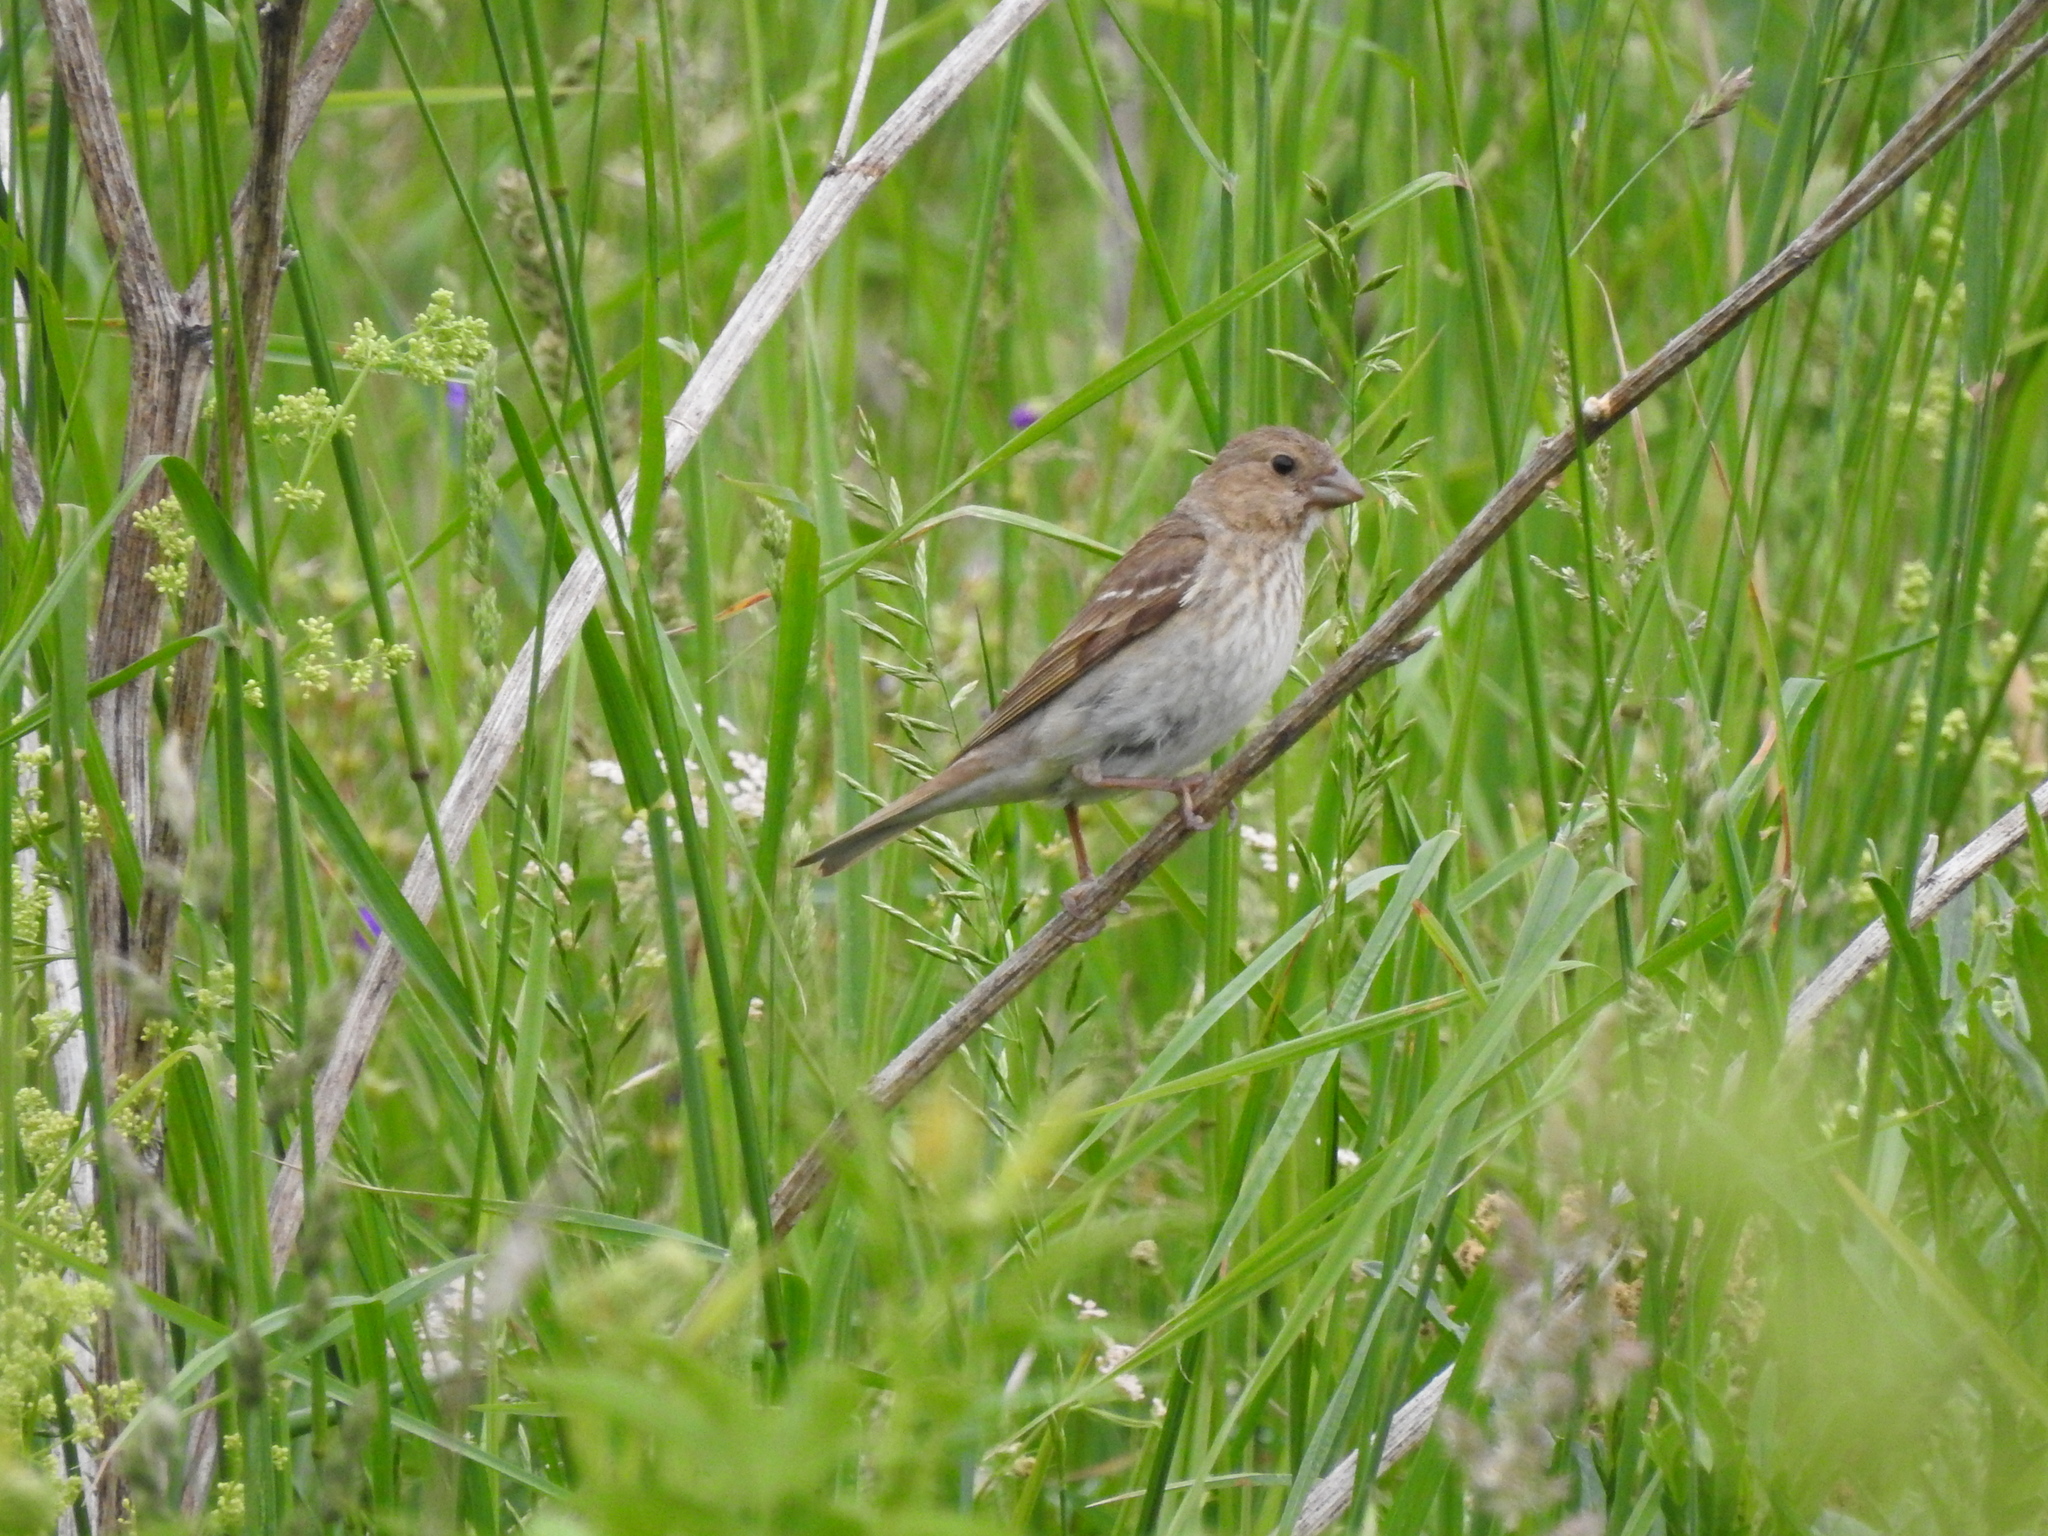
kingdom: Animalia
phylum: Chordata
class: Aves
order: Passeriformes
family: Fringillidae
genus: Carpodacus
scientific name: Carpodacus erythrinus
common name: Common rosefinch
